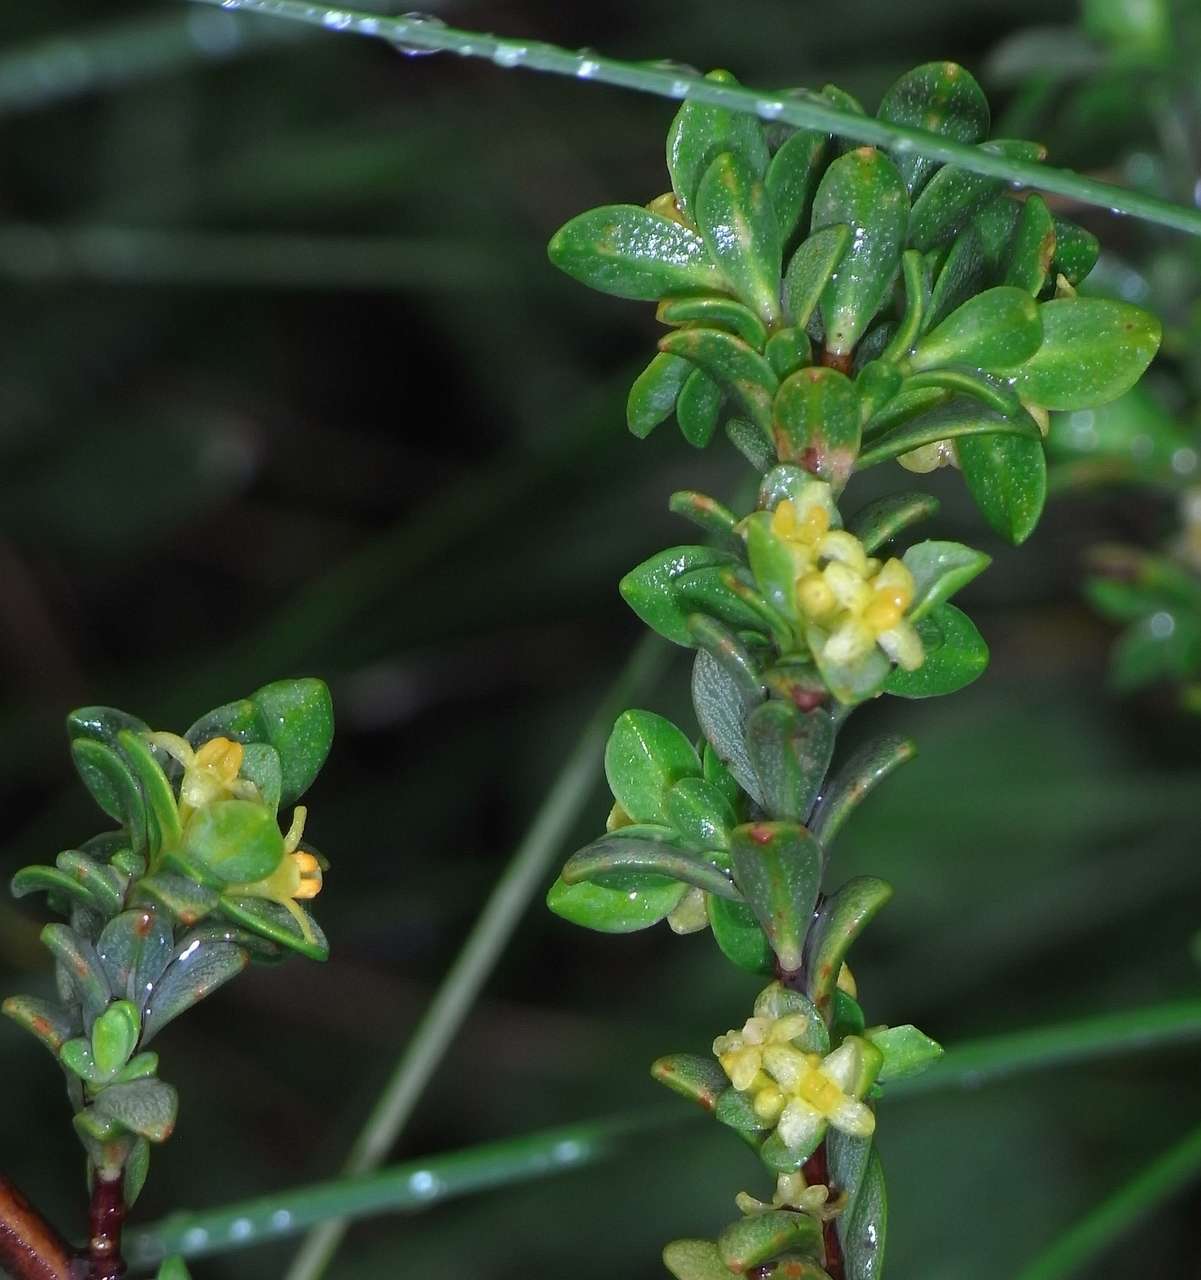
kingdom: Plantae
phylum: Tracheophyta
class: Magnoliopsida
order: Malvales
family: Thymelaeaceae
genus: Pimelea
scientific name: Pimelea serpyllifolia
